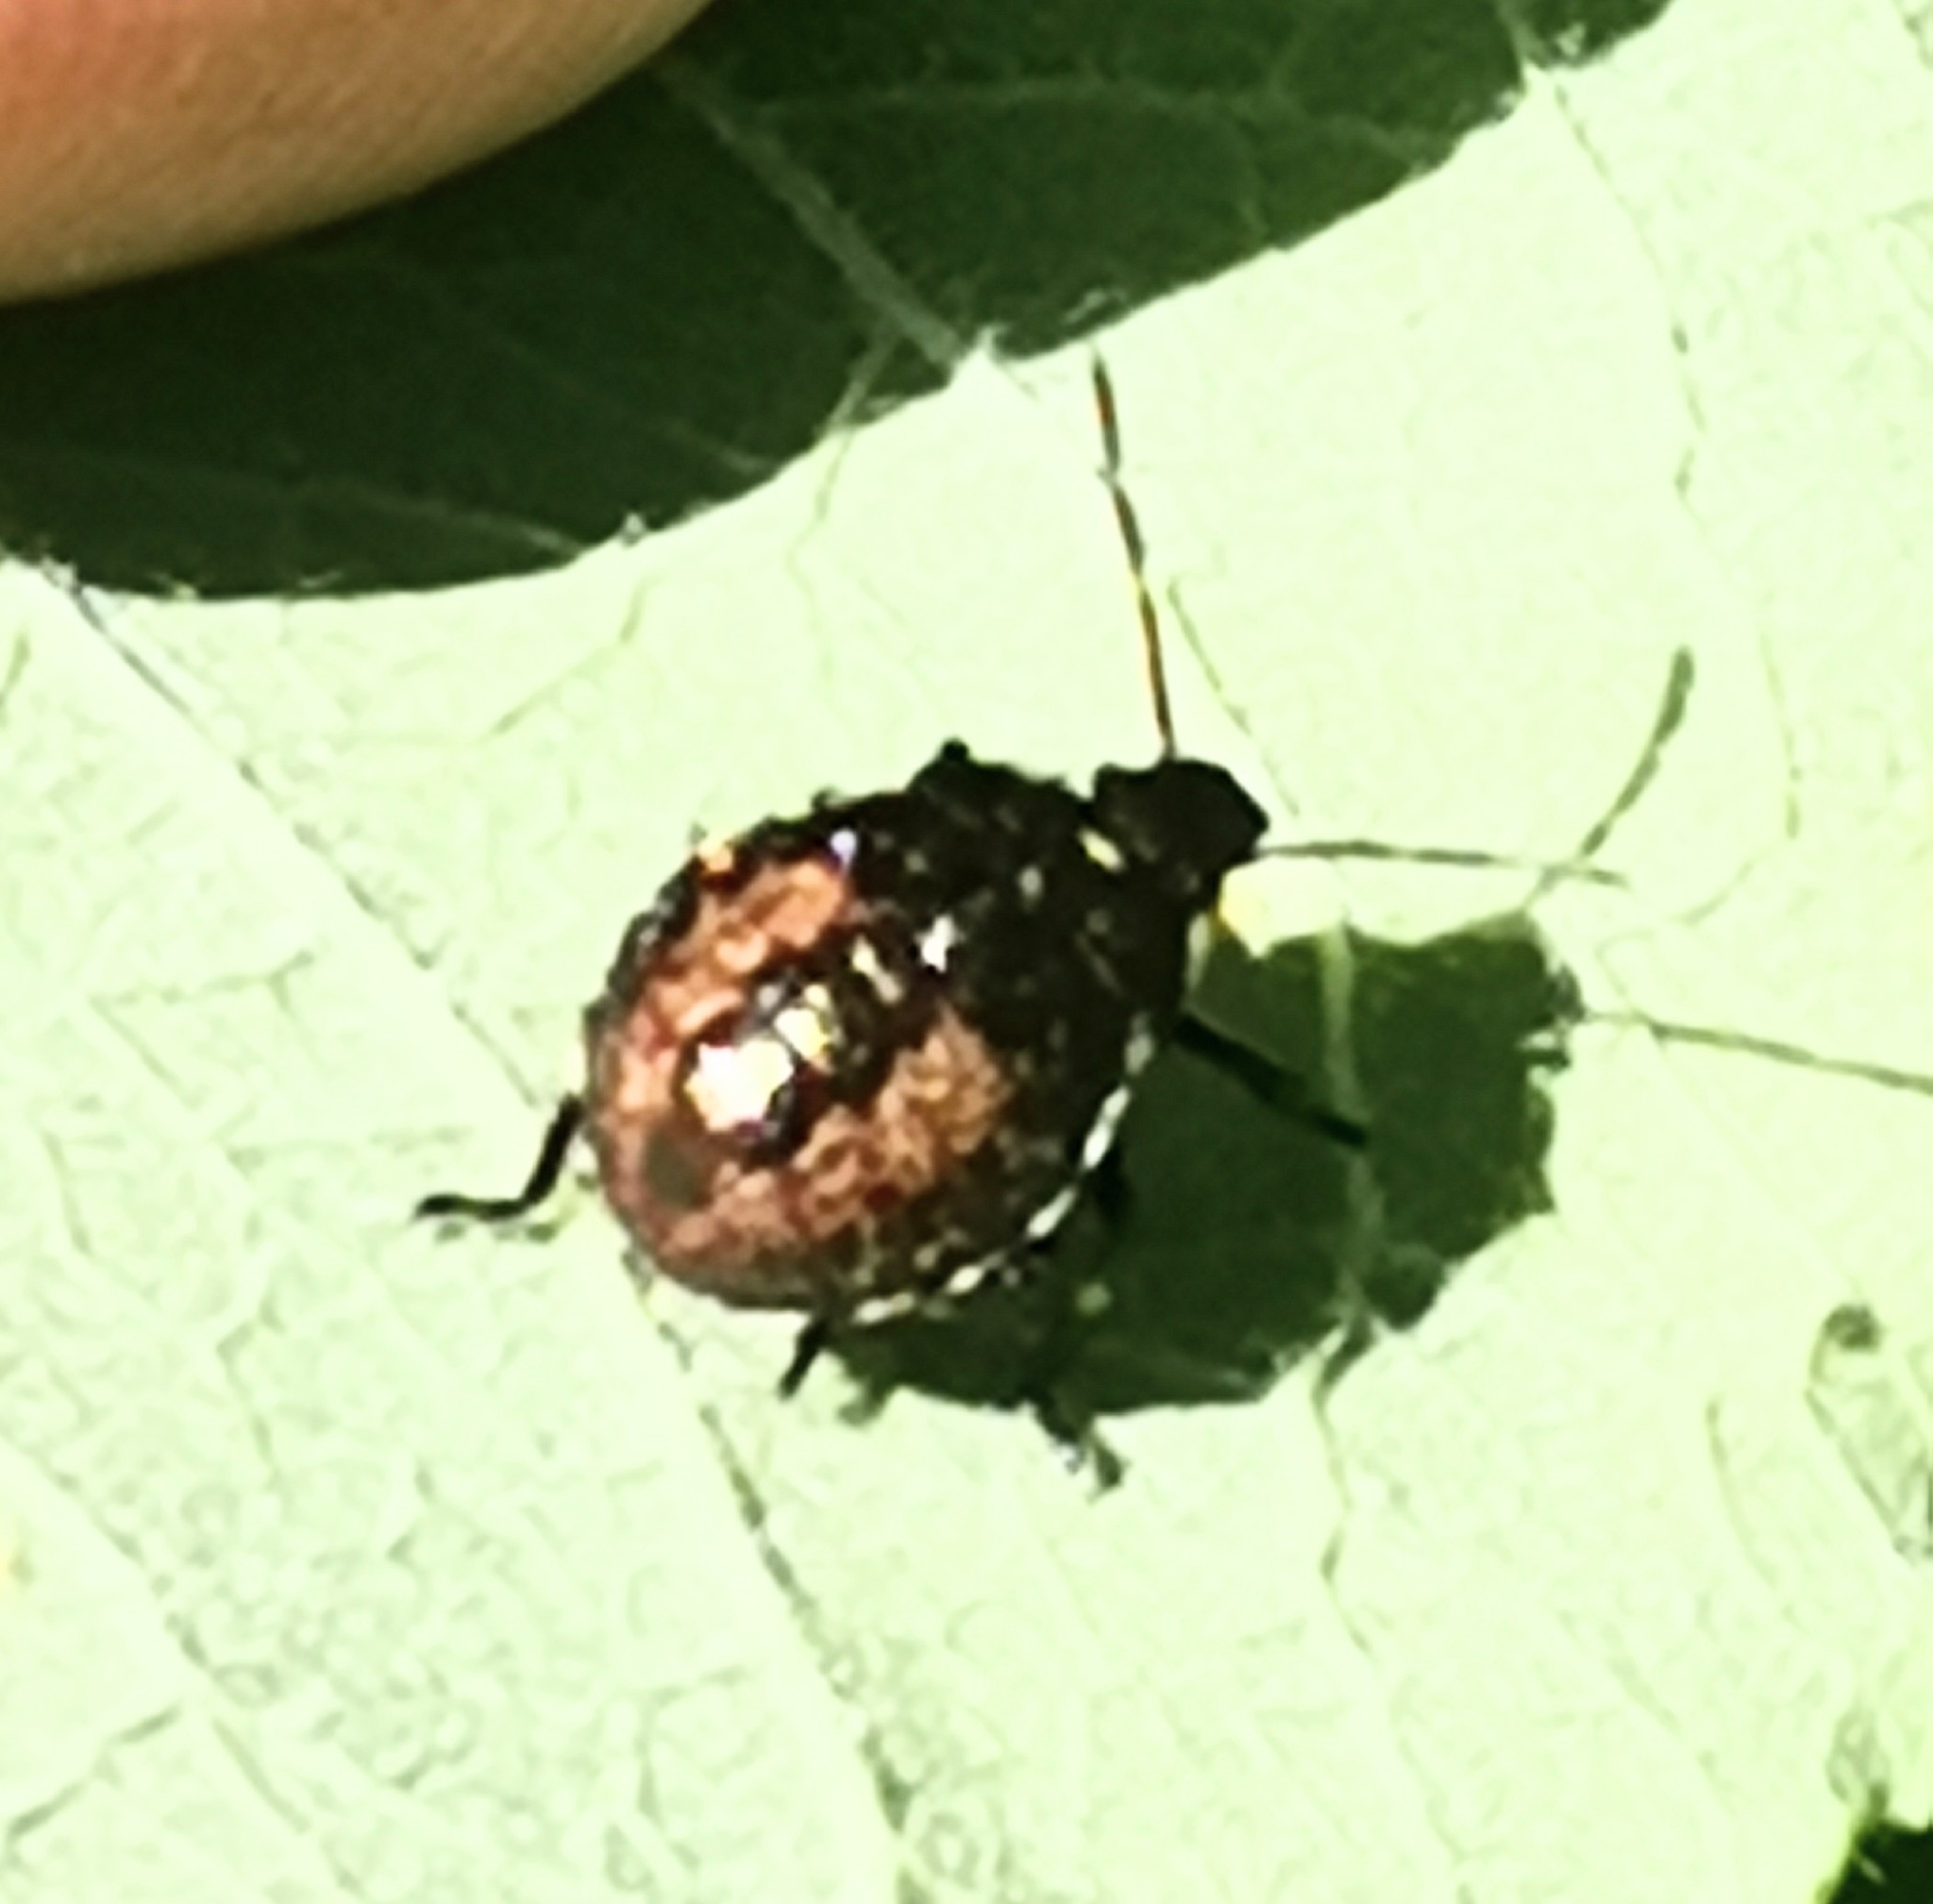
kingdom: Animalia
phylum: Arthropoda
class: Insecta
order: Hemiptera
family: Pentatomidae
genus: Picromerus
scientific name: Picromerus bidens
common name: Spiked shieldbug
